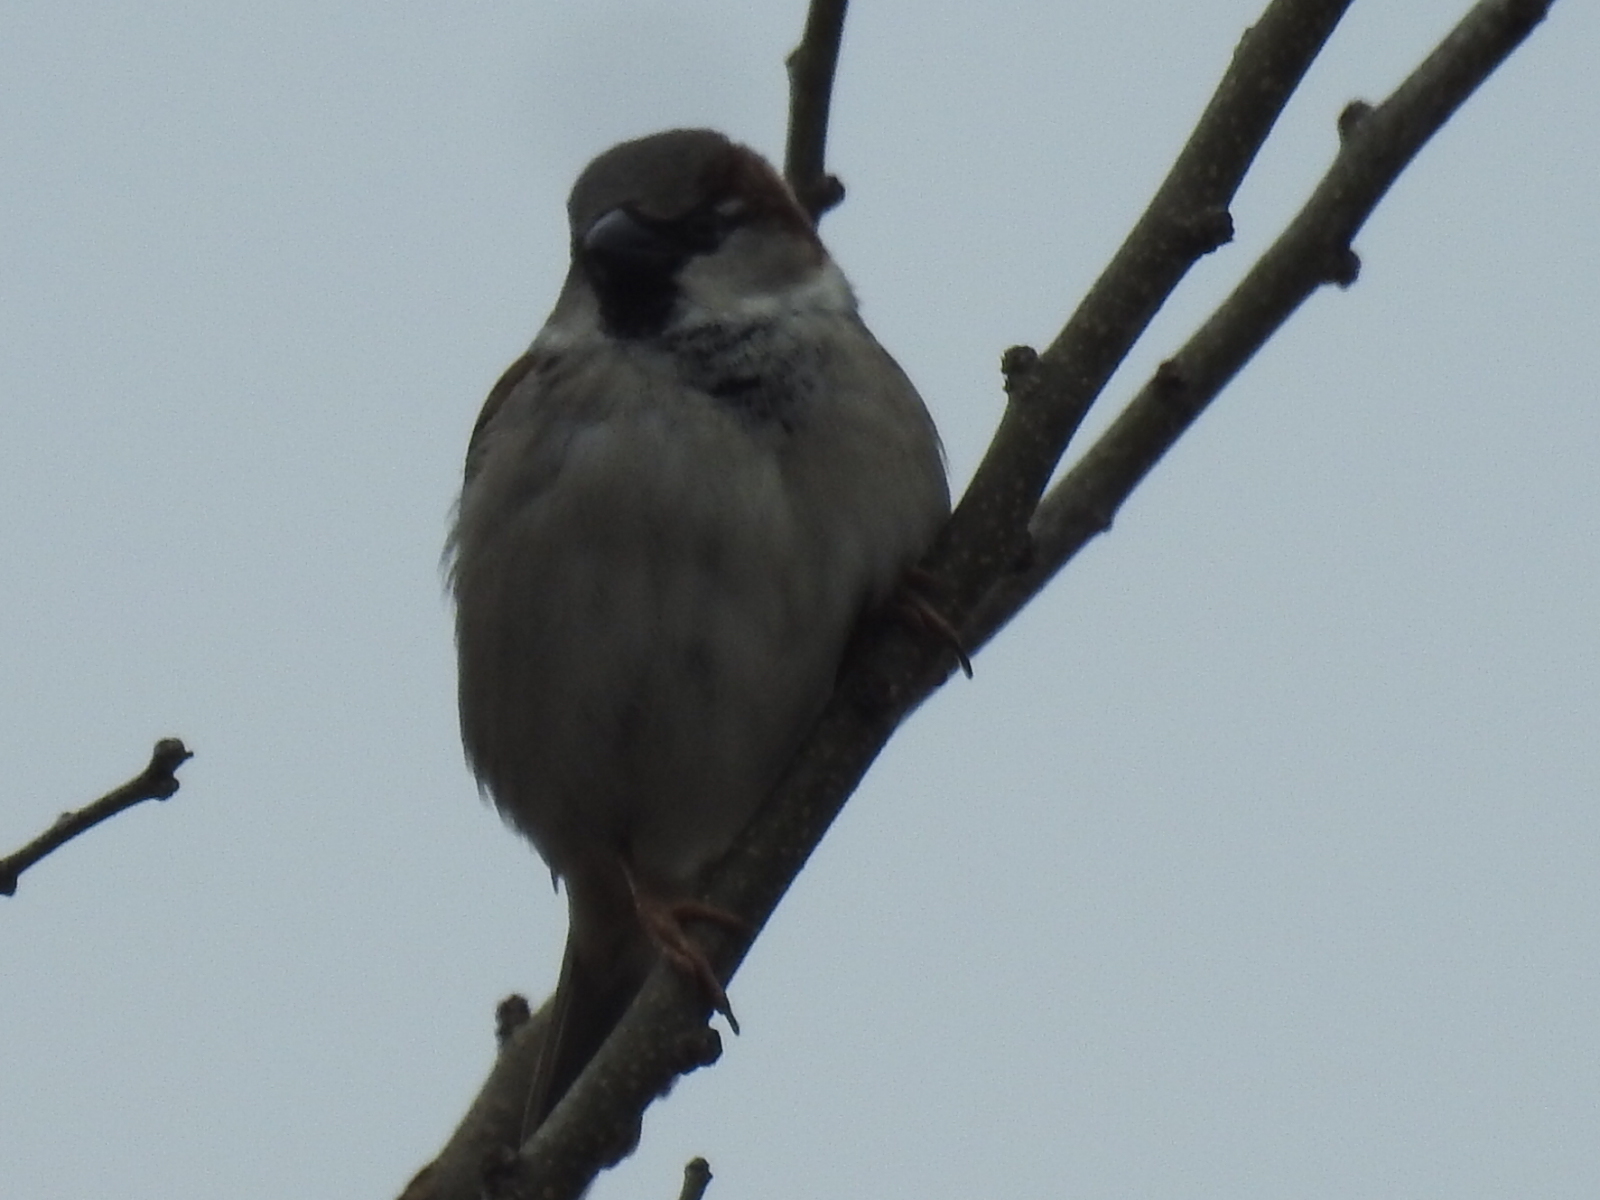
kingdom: Animalia
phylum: Chordata
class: Aves
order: Passeriformes
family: Passeridae
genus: Passer
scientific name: Passer domesticus
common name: House sparrow
